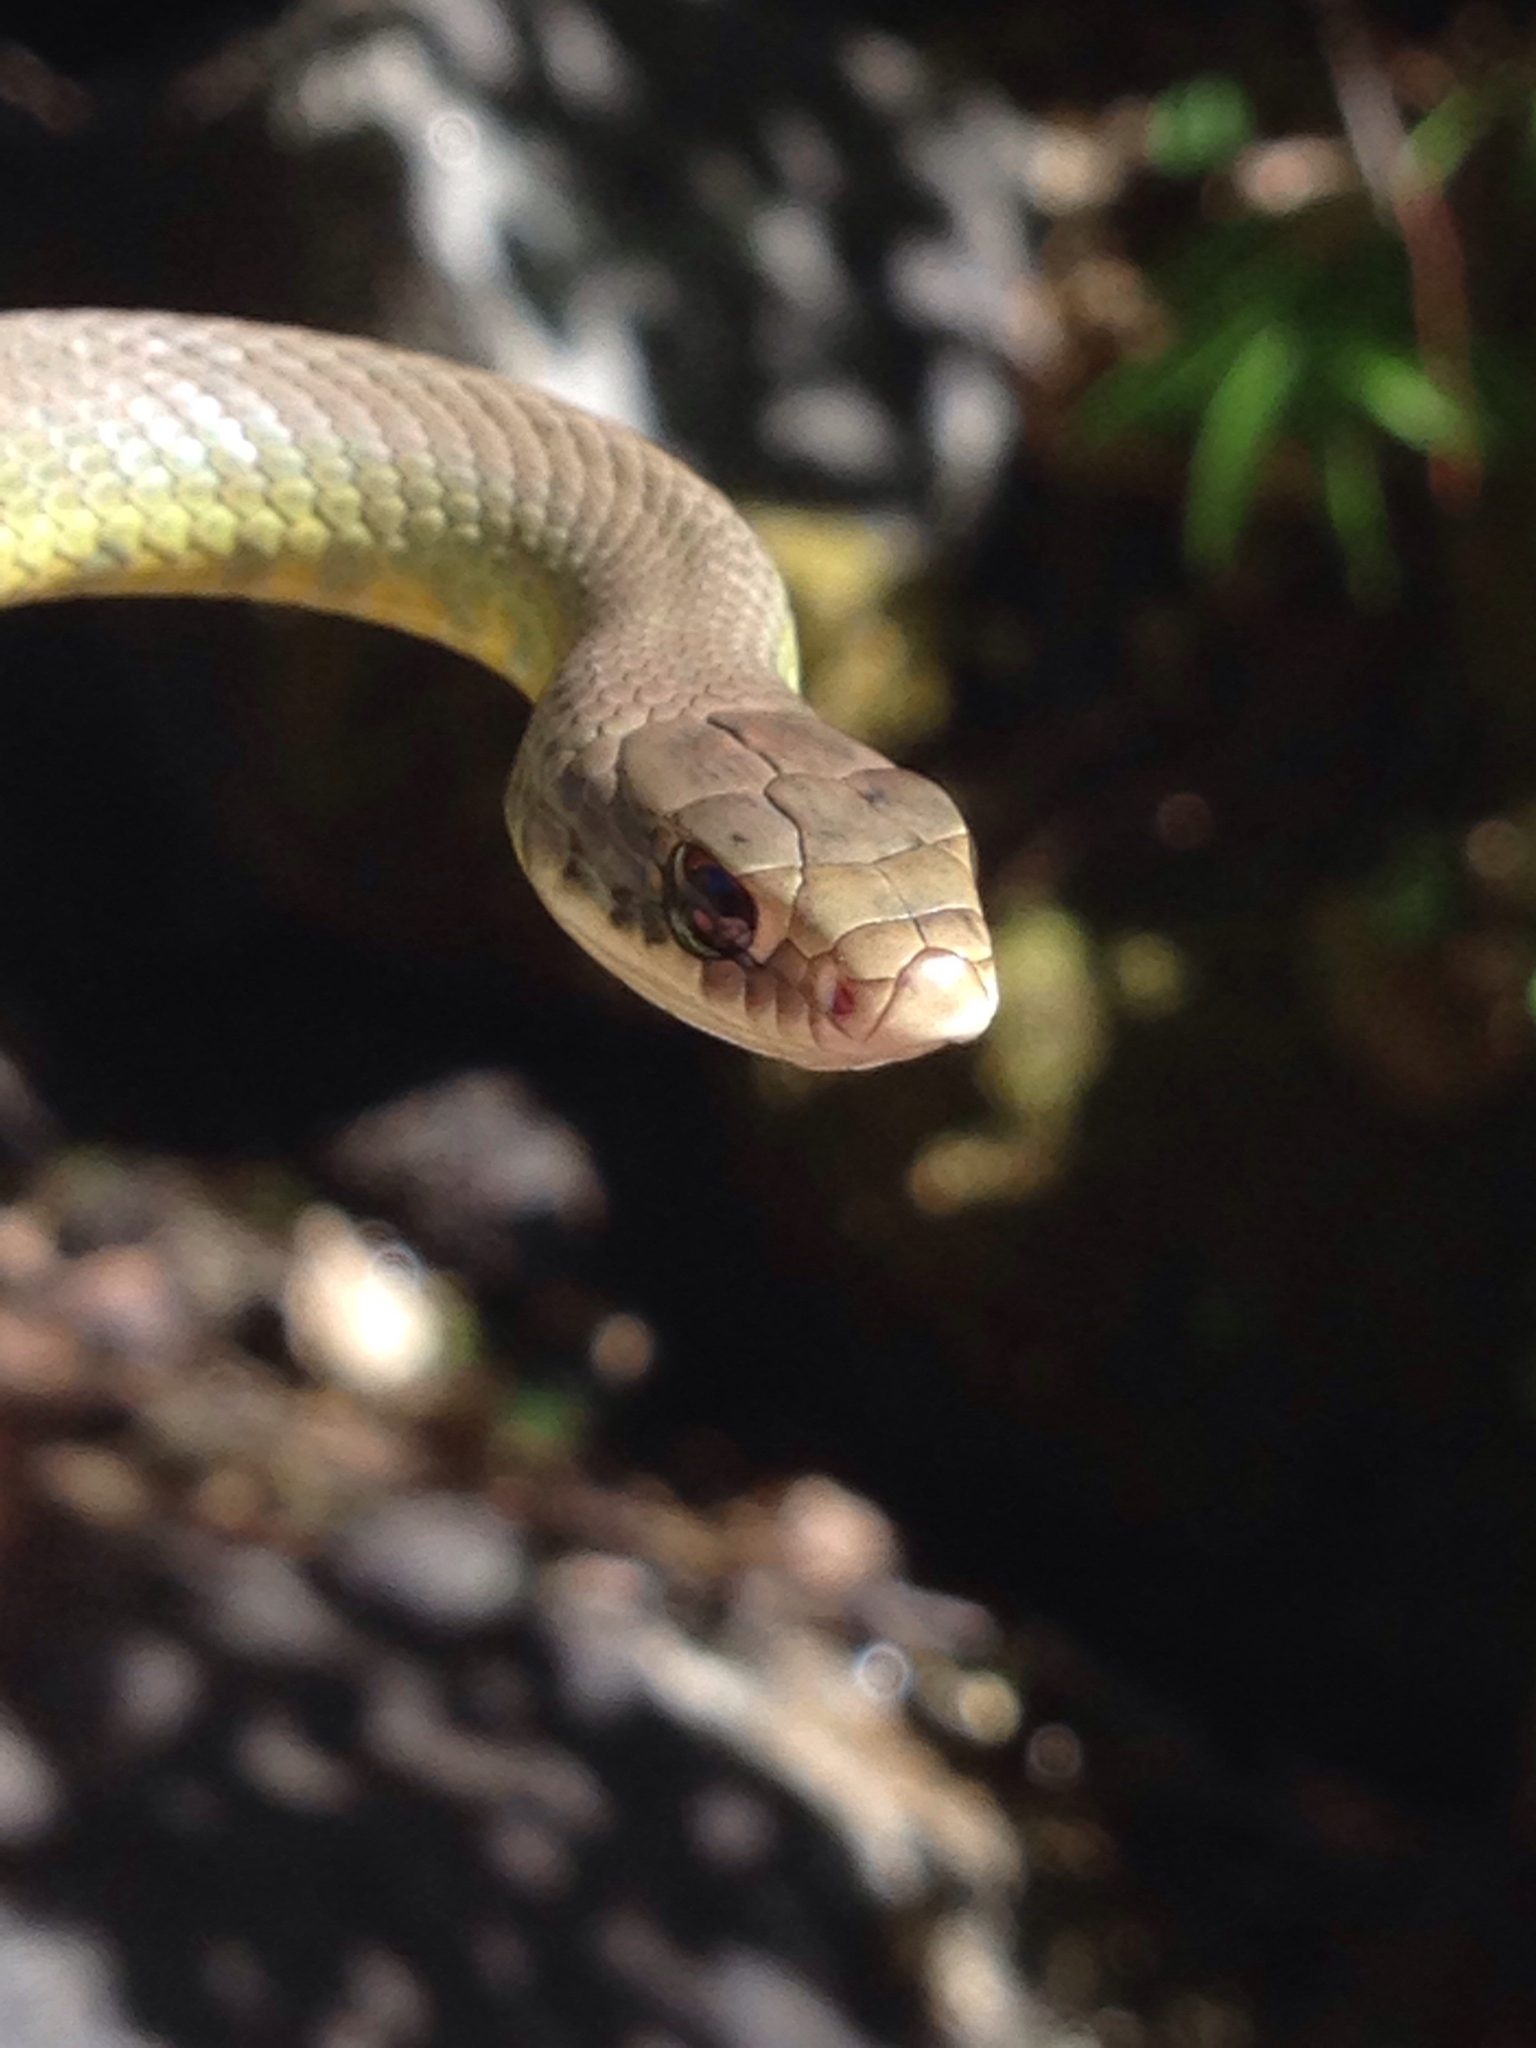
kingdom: Animalia
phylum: Chordata
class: Squamata
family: Colubridae
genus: Coluber
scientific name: Coluber constrictor
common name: Eastern racer
